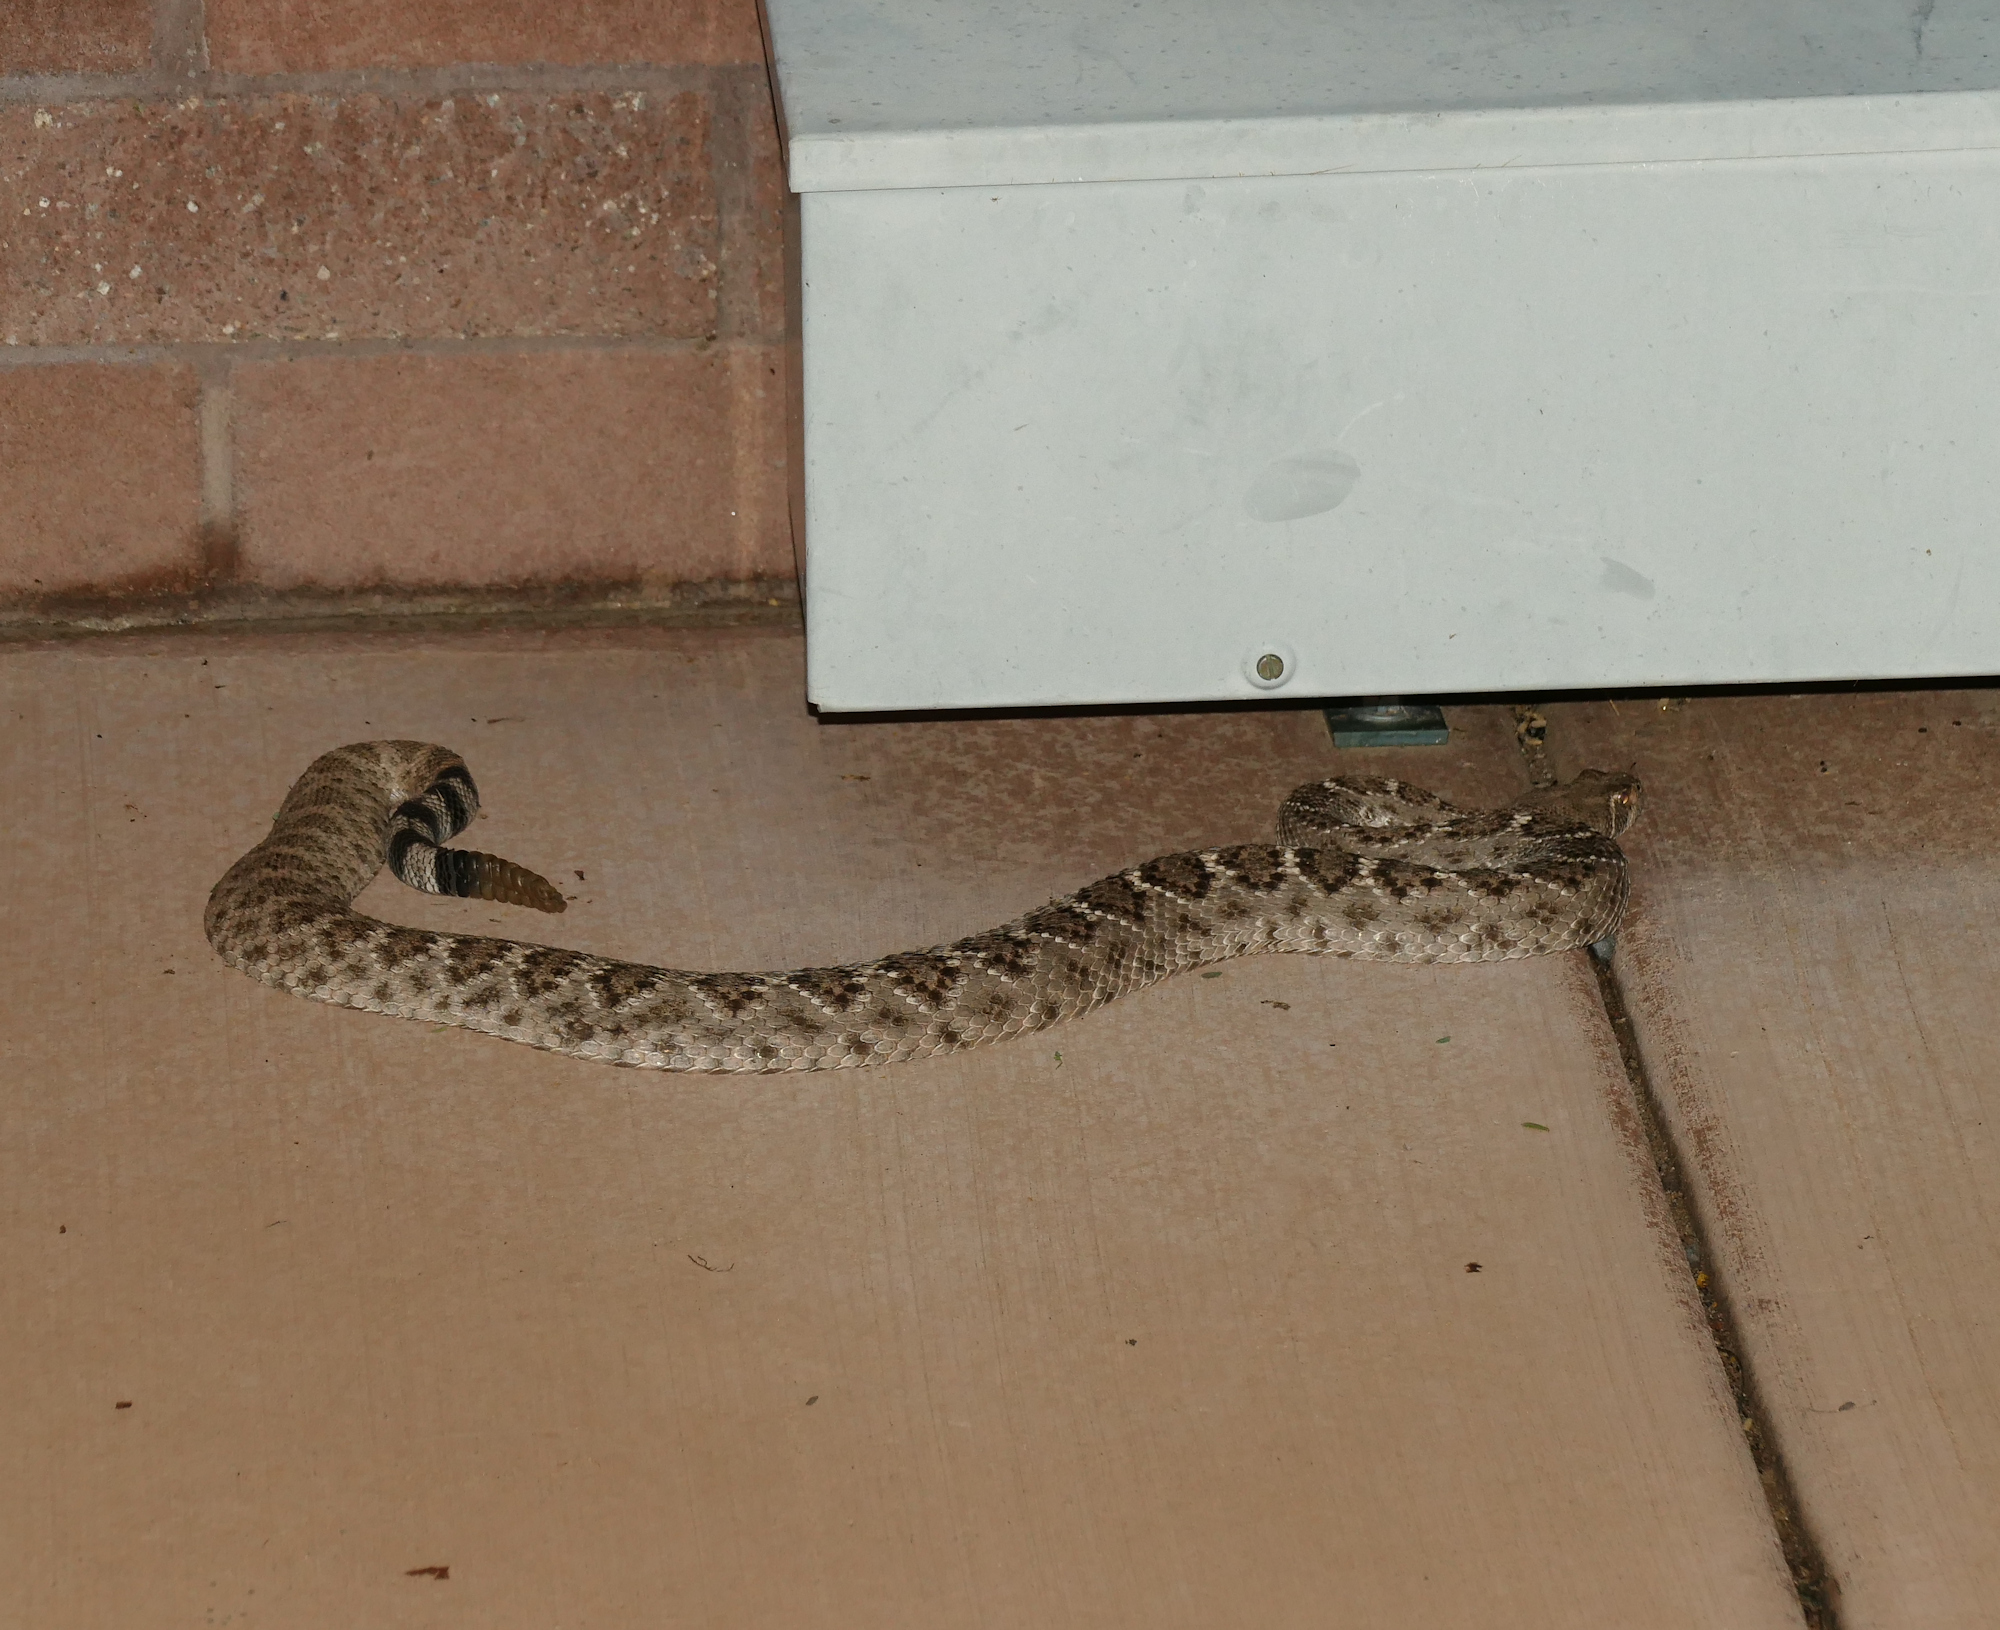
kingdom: Animalia
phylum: Chordata
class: Squamata
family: Viperidae
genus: Crotalus
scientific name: Crotalus atrox
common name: Western diamond-backed rattlesnake
